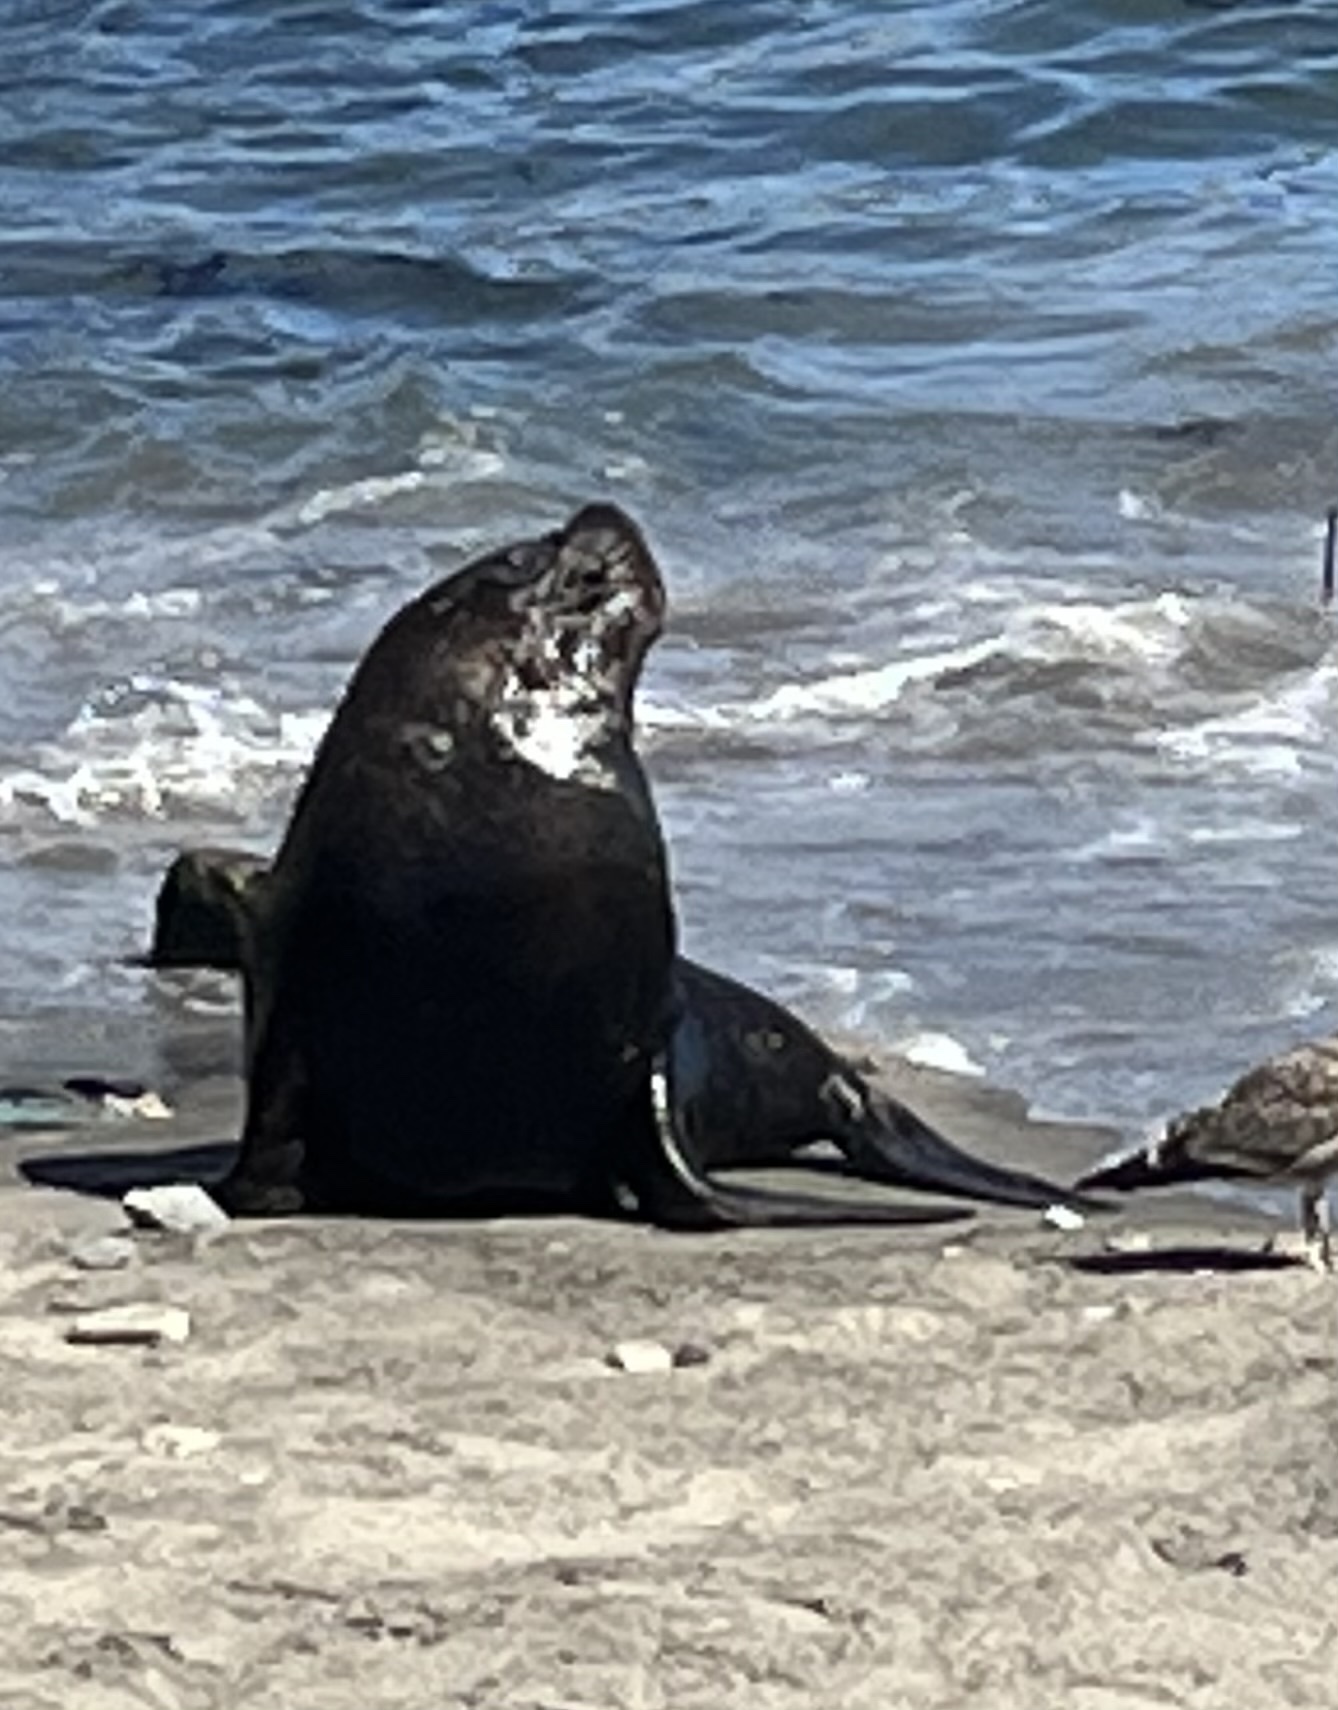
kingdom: Animalia
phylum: Chordata
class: Mammalia
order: Carnivora
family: Otariidae
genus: Otaria
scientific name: Otaria byronia
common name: South american sea lion
